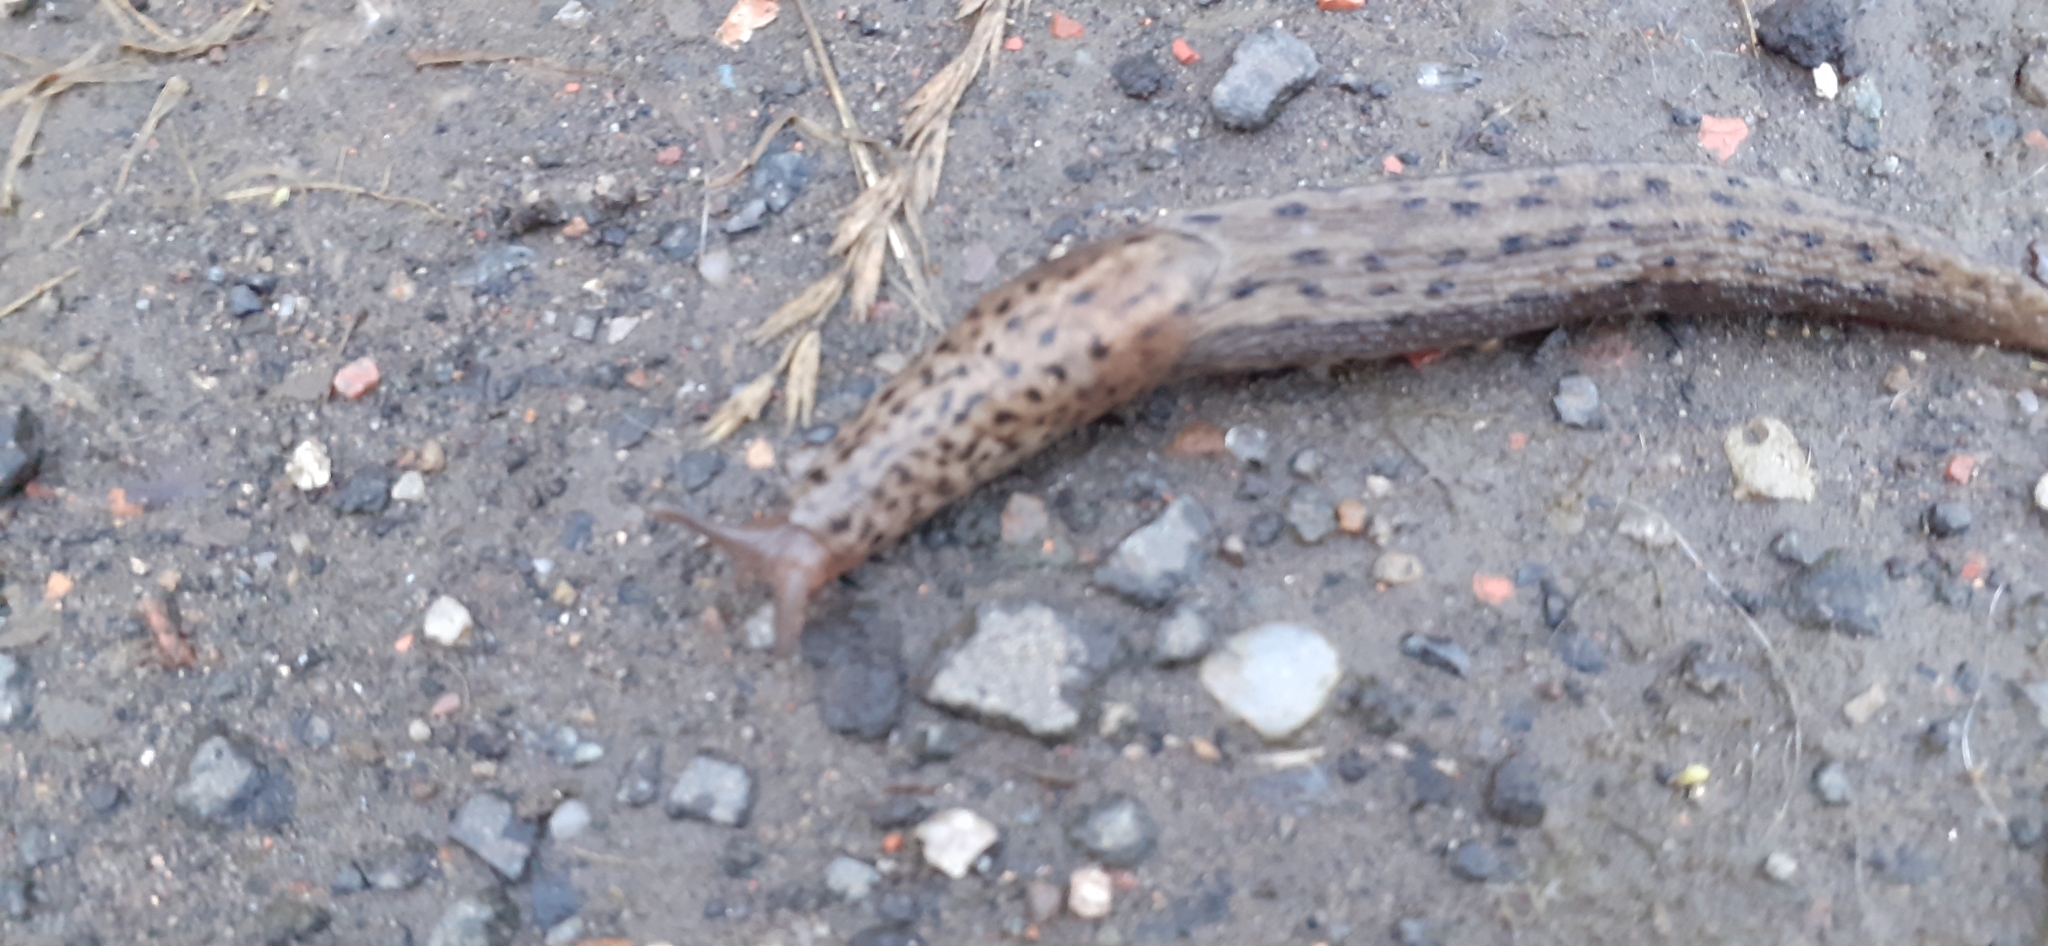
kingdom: Animalia
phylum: Mollusca
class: Gastropoda
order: Stylommatophora
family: Limacidae
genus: Limax
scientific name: Limax maximus
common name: Great grey slug
